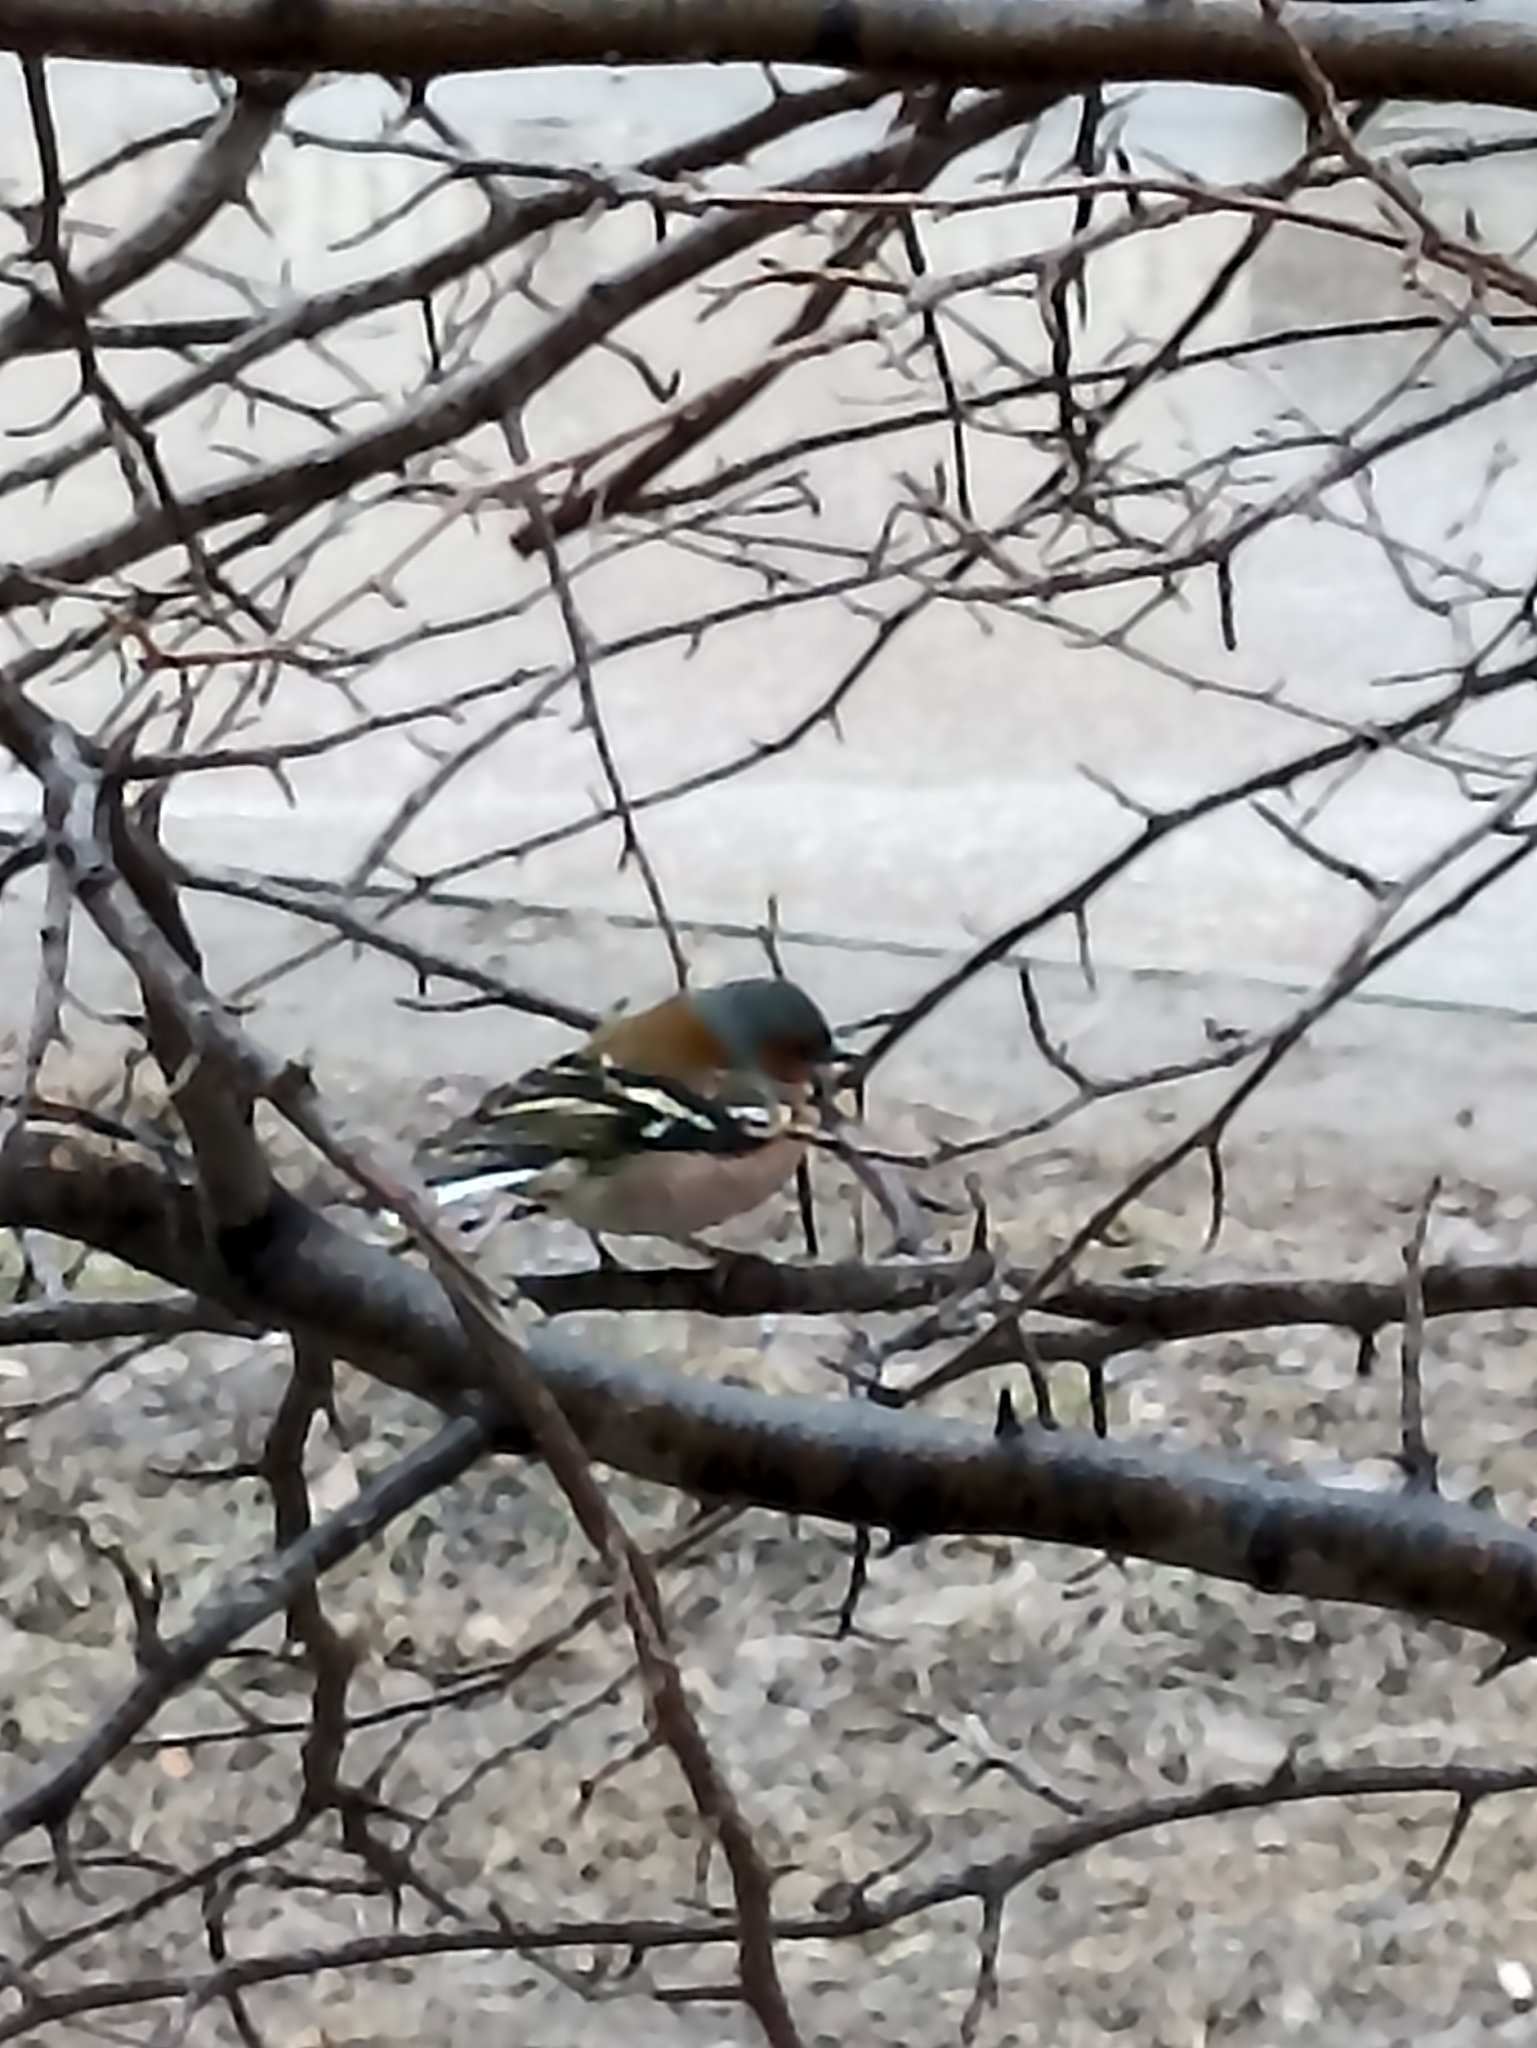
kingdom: Animalia
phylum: Chordata
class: Aves
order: Passeriformes
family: Fringillidae
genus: Fringilla
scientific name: Fringilla coelebs
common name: Common chaffinch
